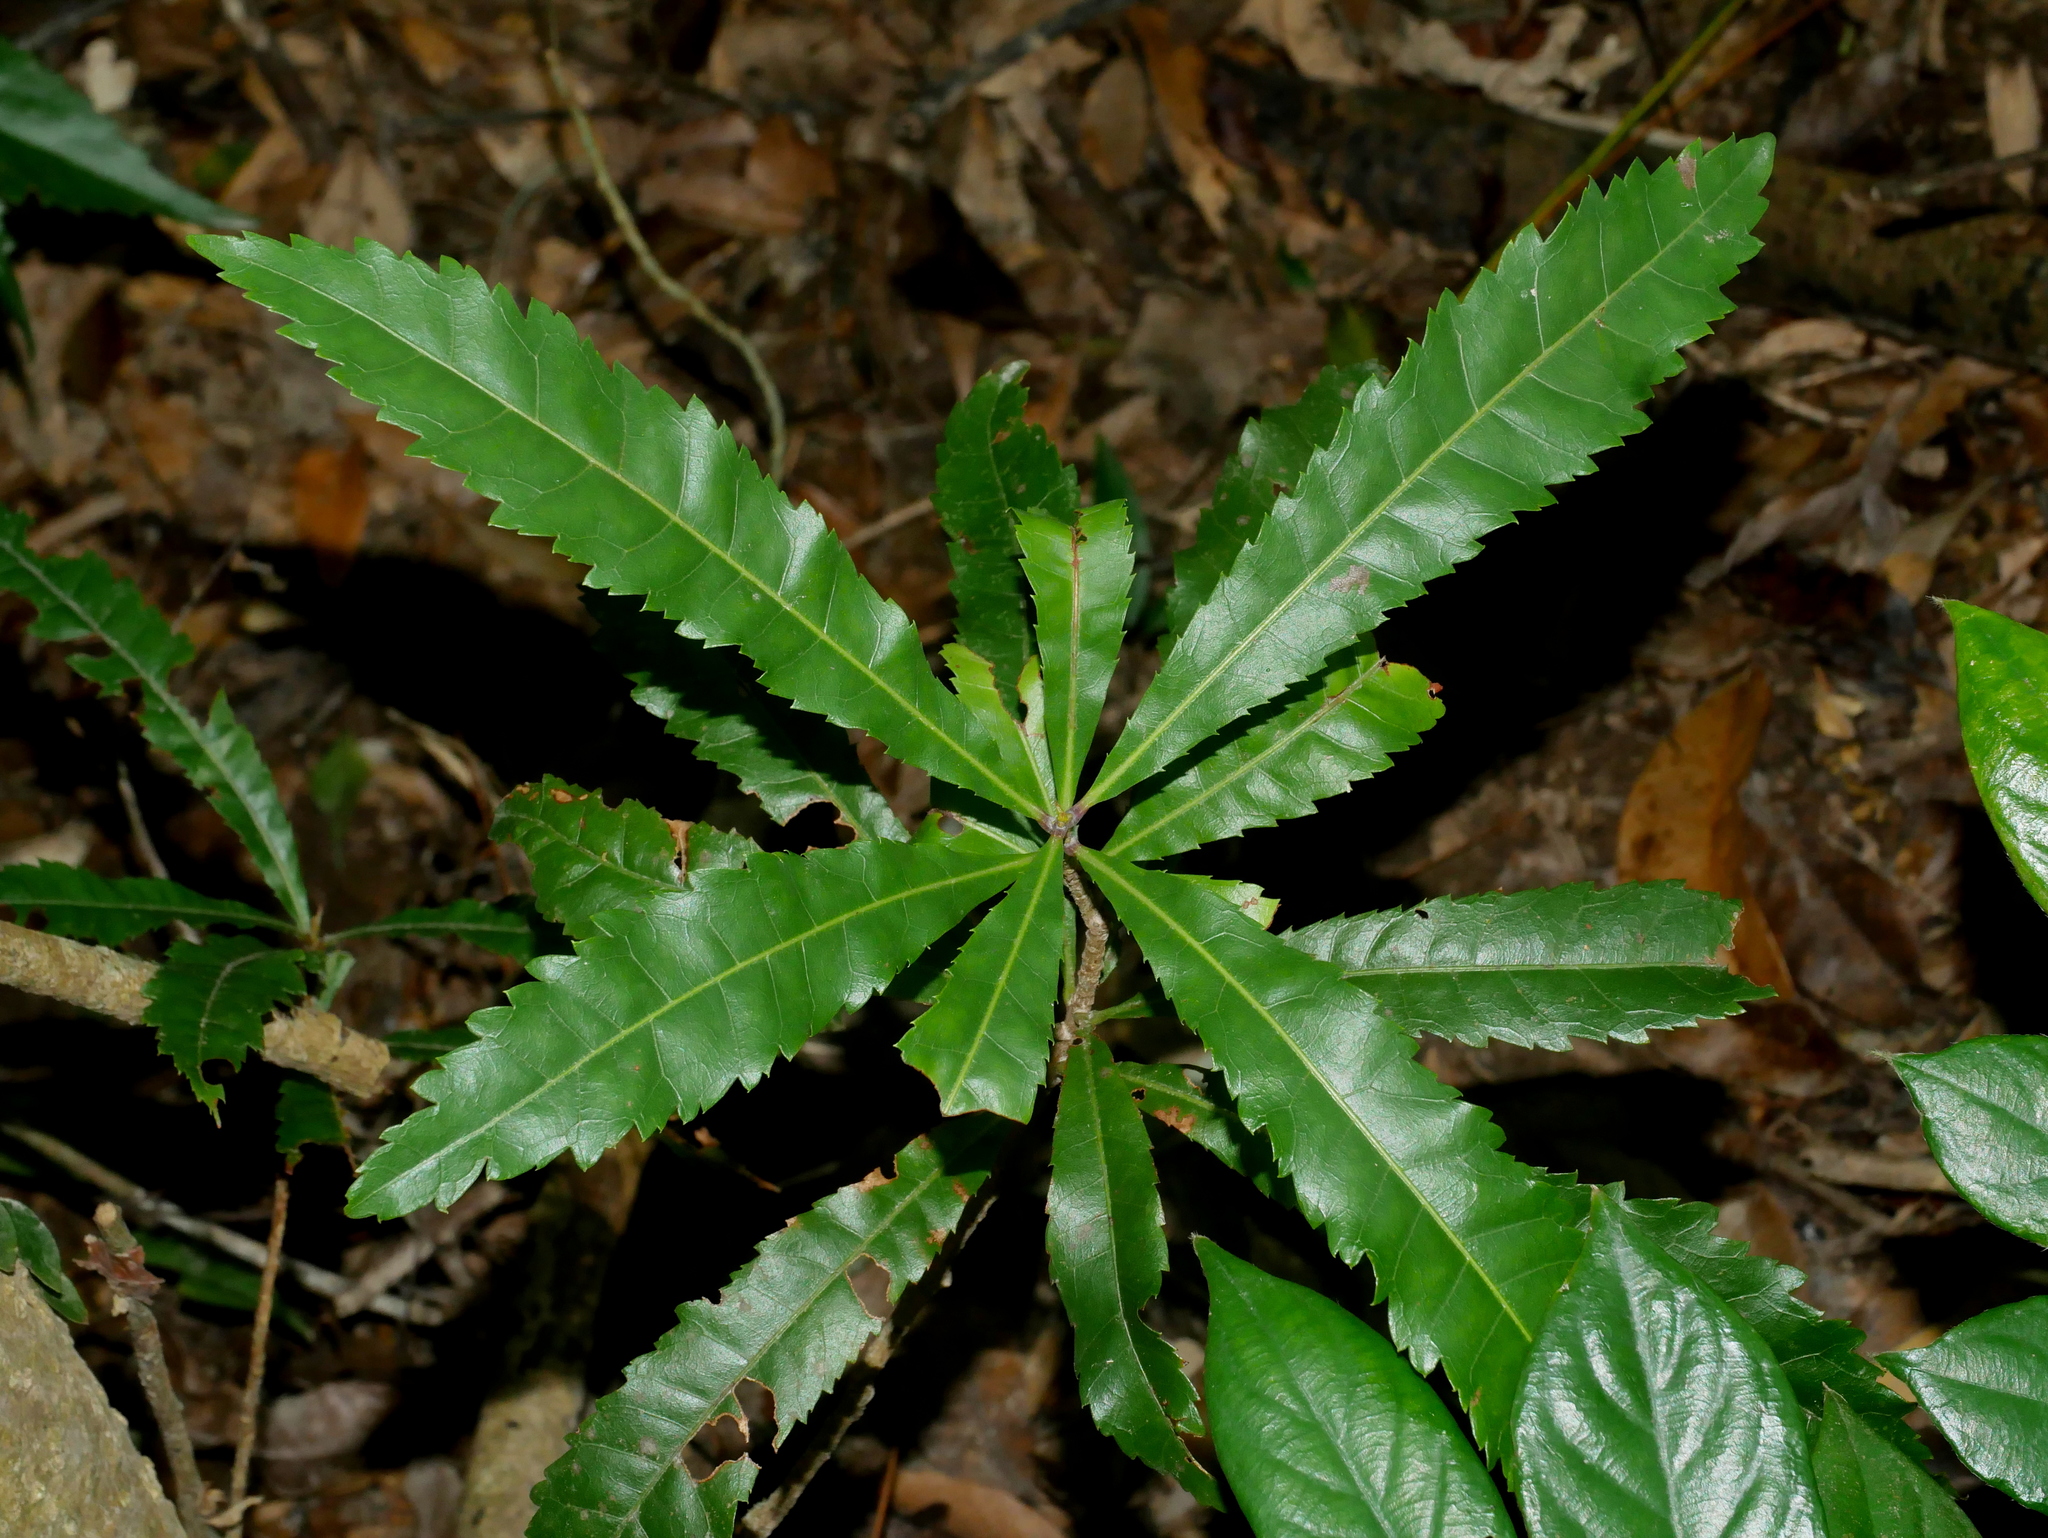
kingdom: Plantae
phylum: Tracheophyta
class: Magnoliopsida
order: Fagales
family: Myricaceae
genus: Morella
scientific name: Morella rubra
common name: Red bayberry
